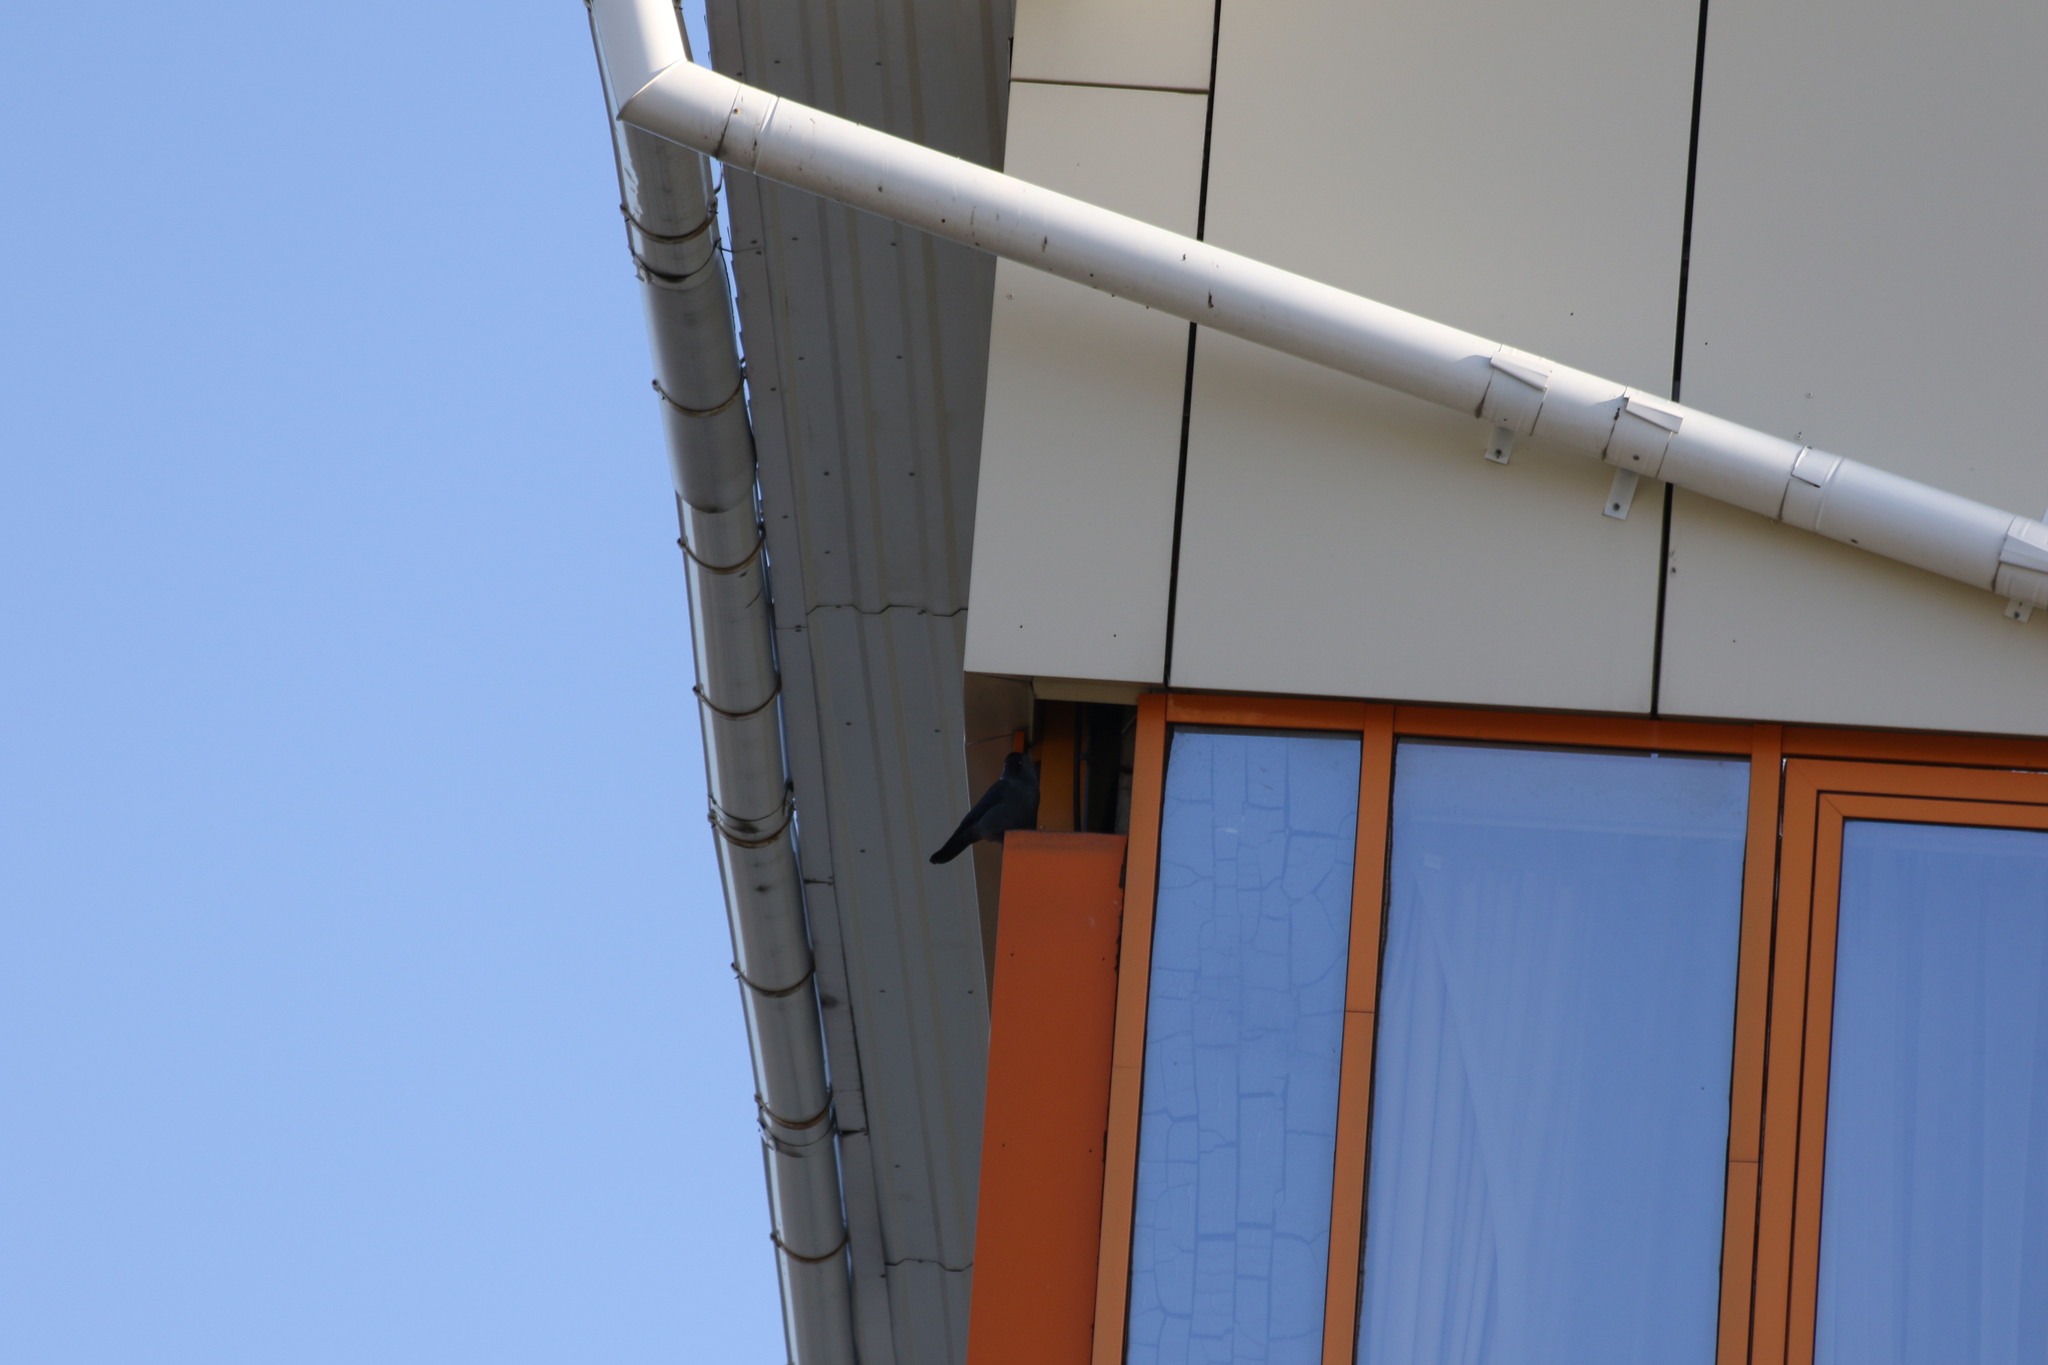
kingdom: Animalia
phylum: Chordata
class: Aves
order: Passeriformes
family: Corvidae
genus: Coloeus
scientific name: Coloeus monedula
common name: Western jackdaw
